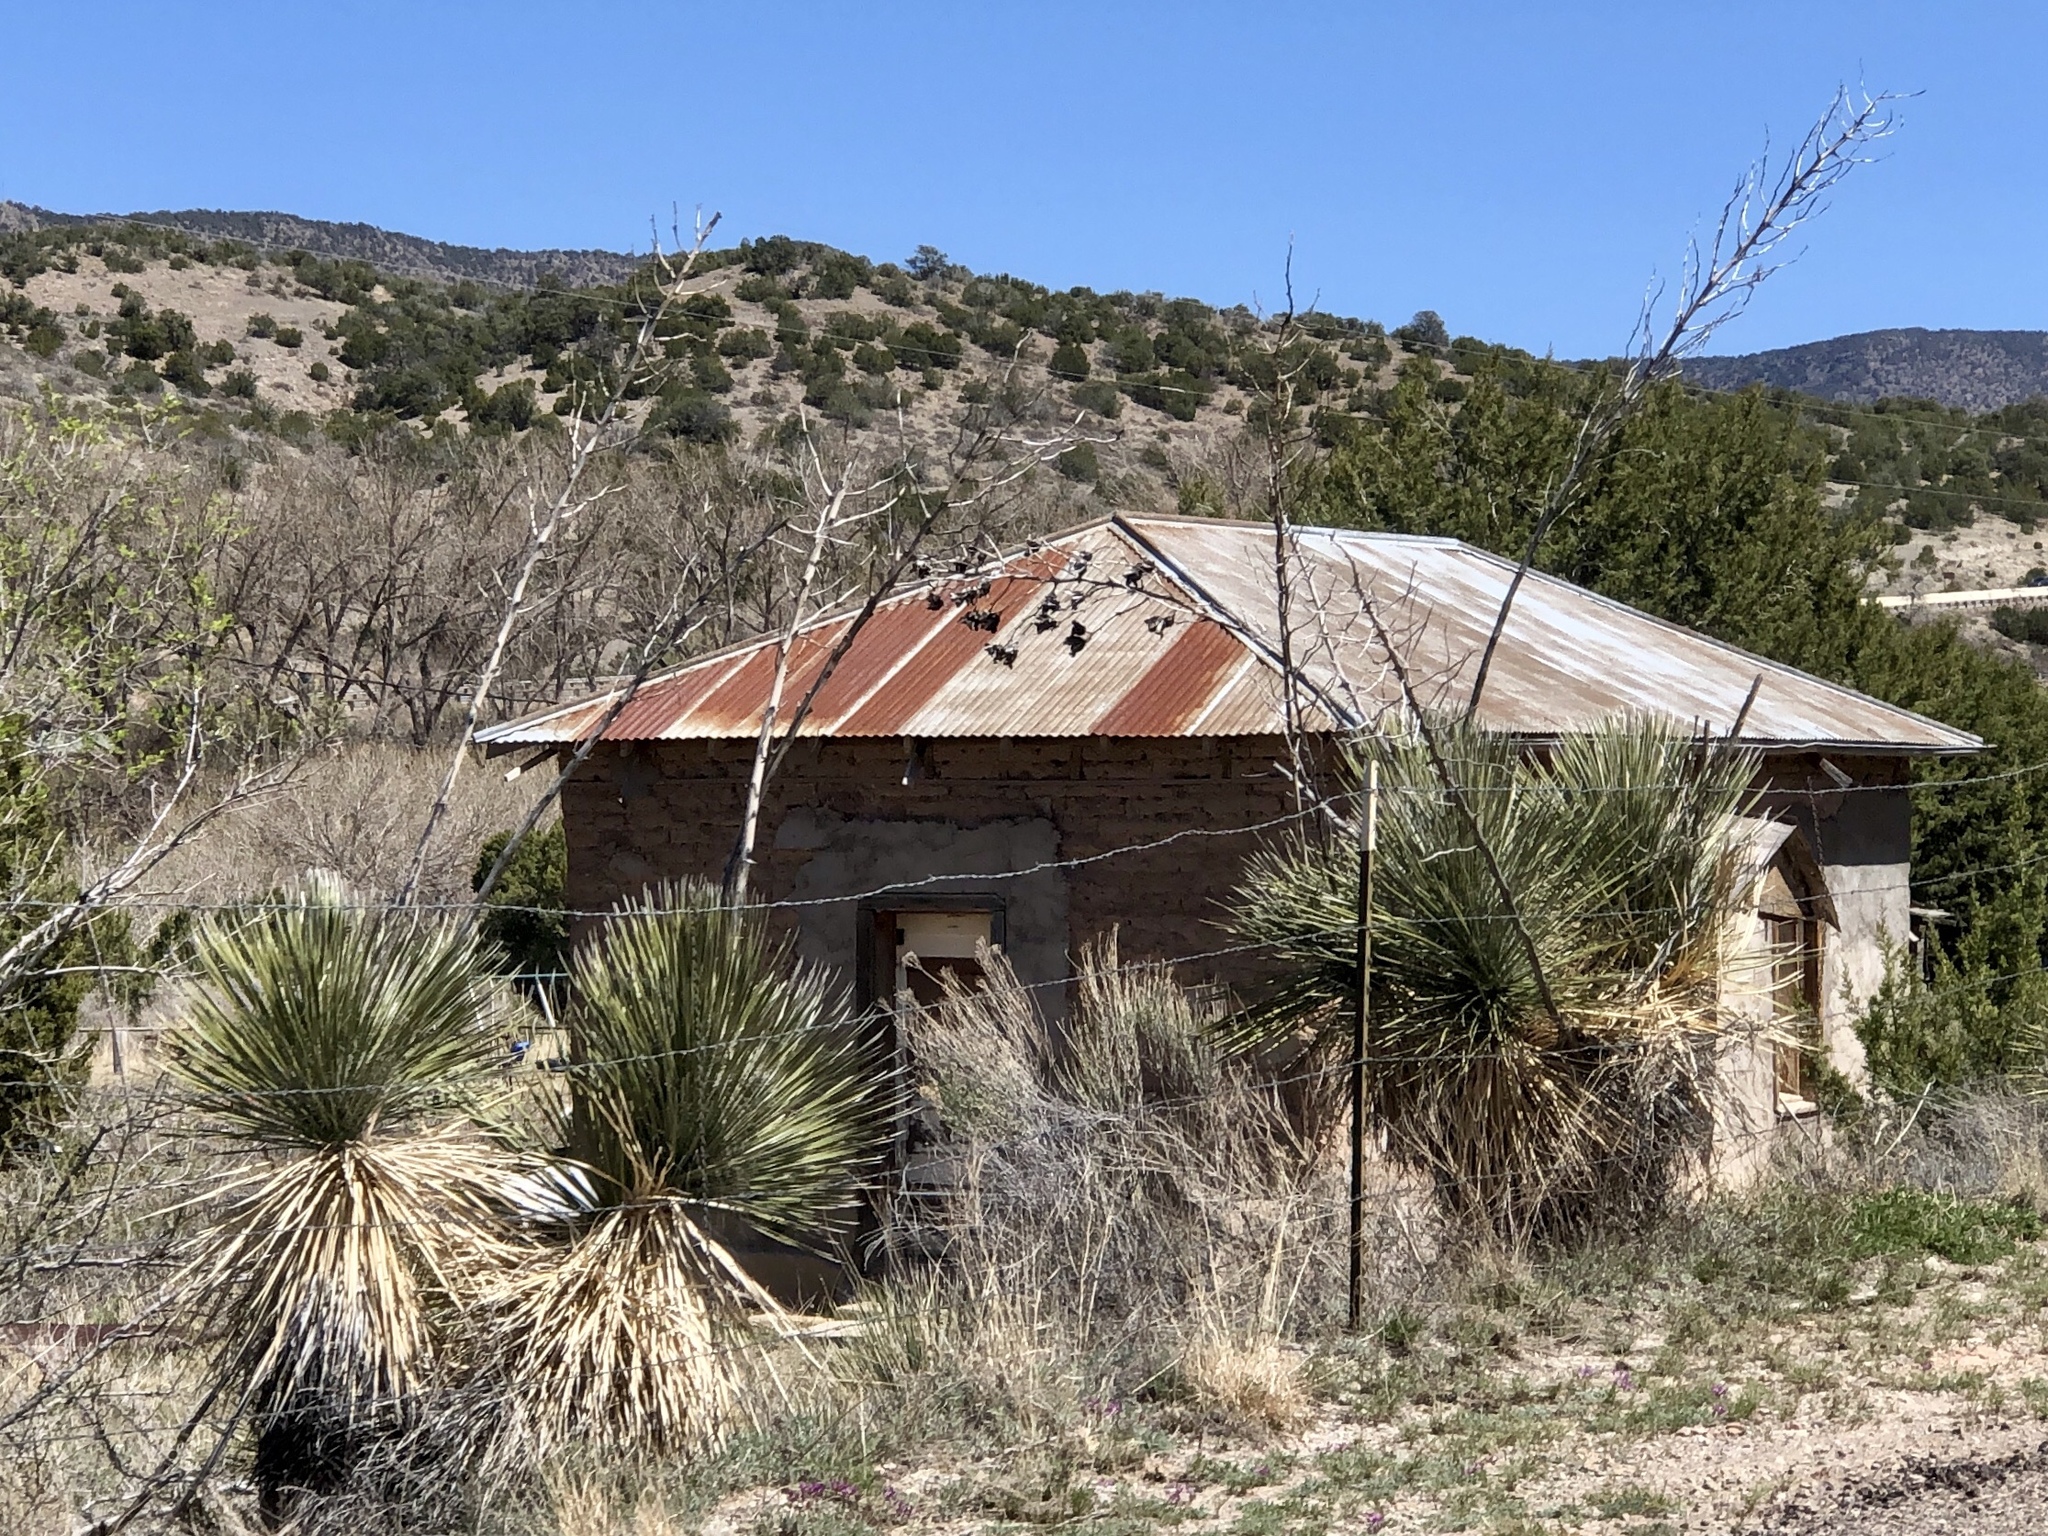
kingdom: Plantae
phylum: Tracheophyta
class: Liliopsida
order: Asparagales
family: Asparagaceae
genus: Yucca
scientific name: Yucca elata
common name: Palmella
